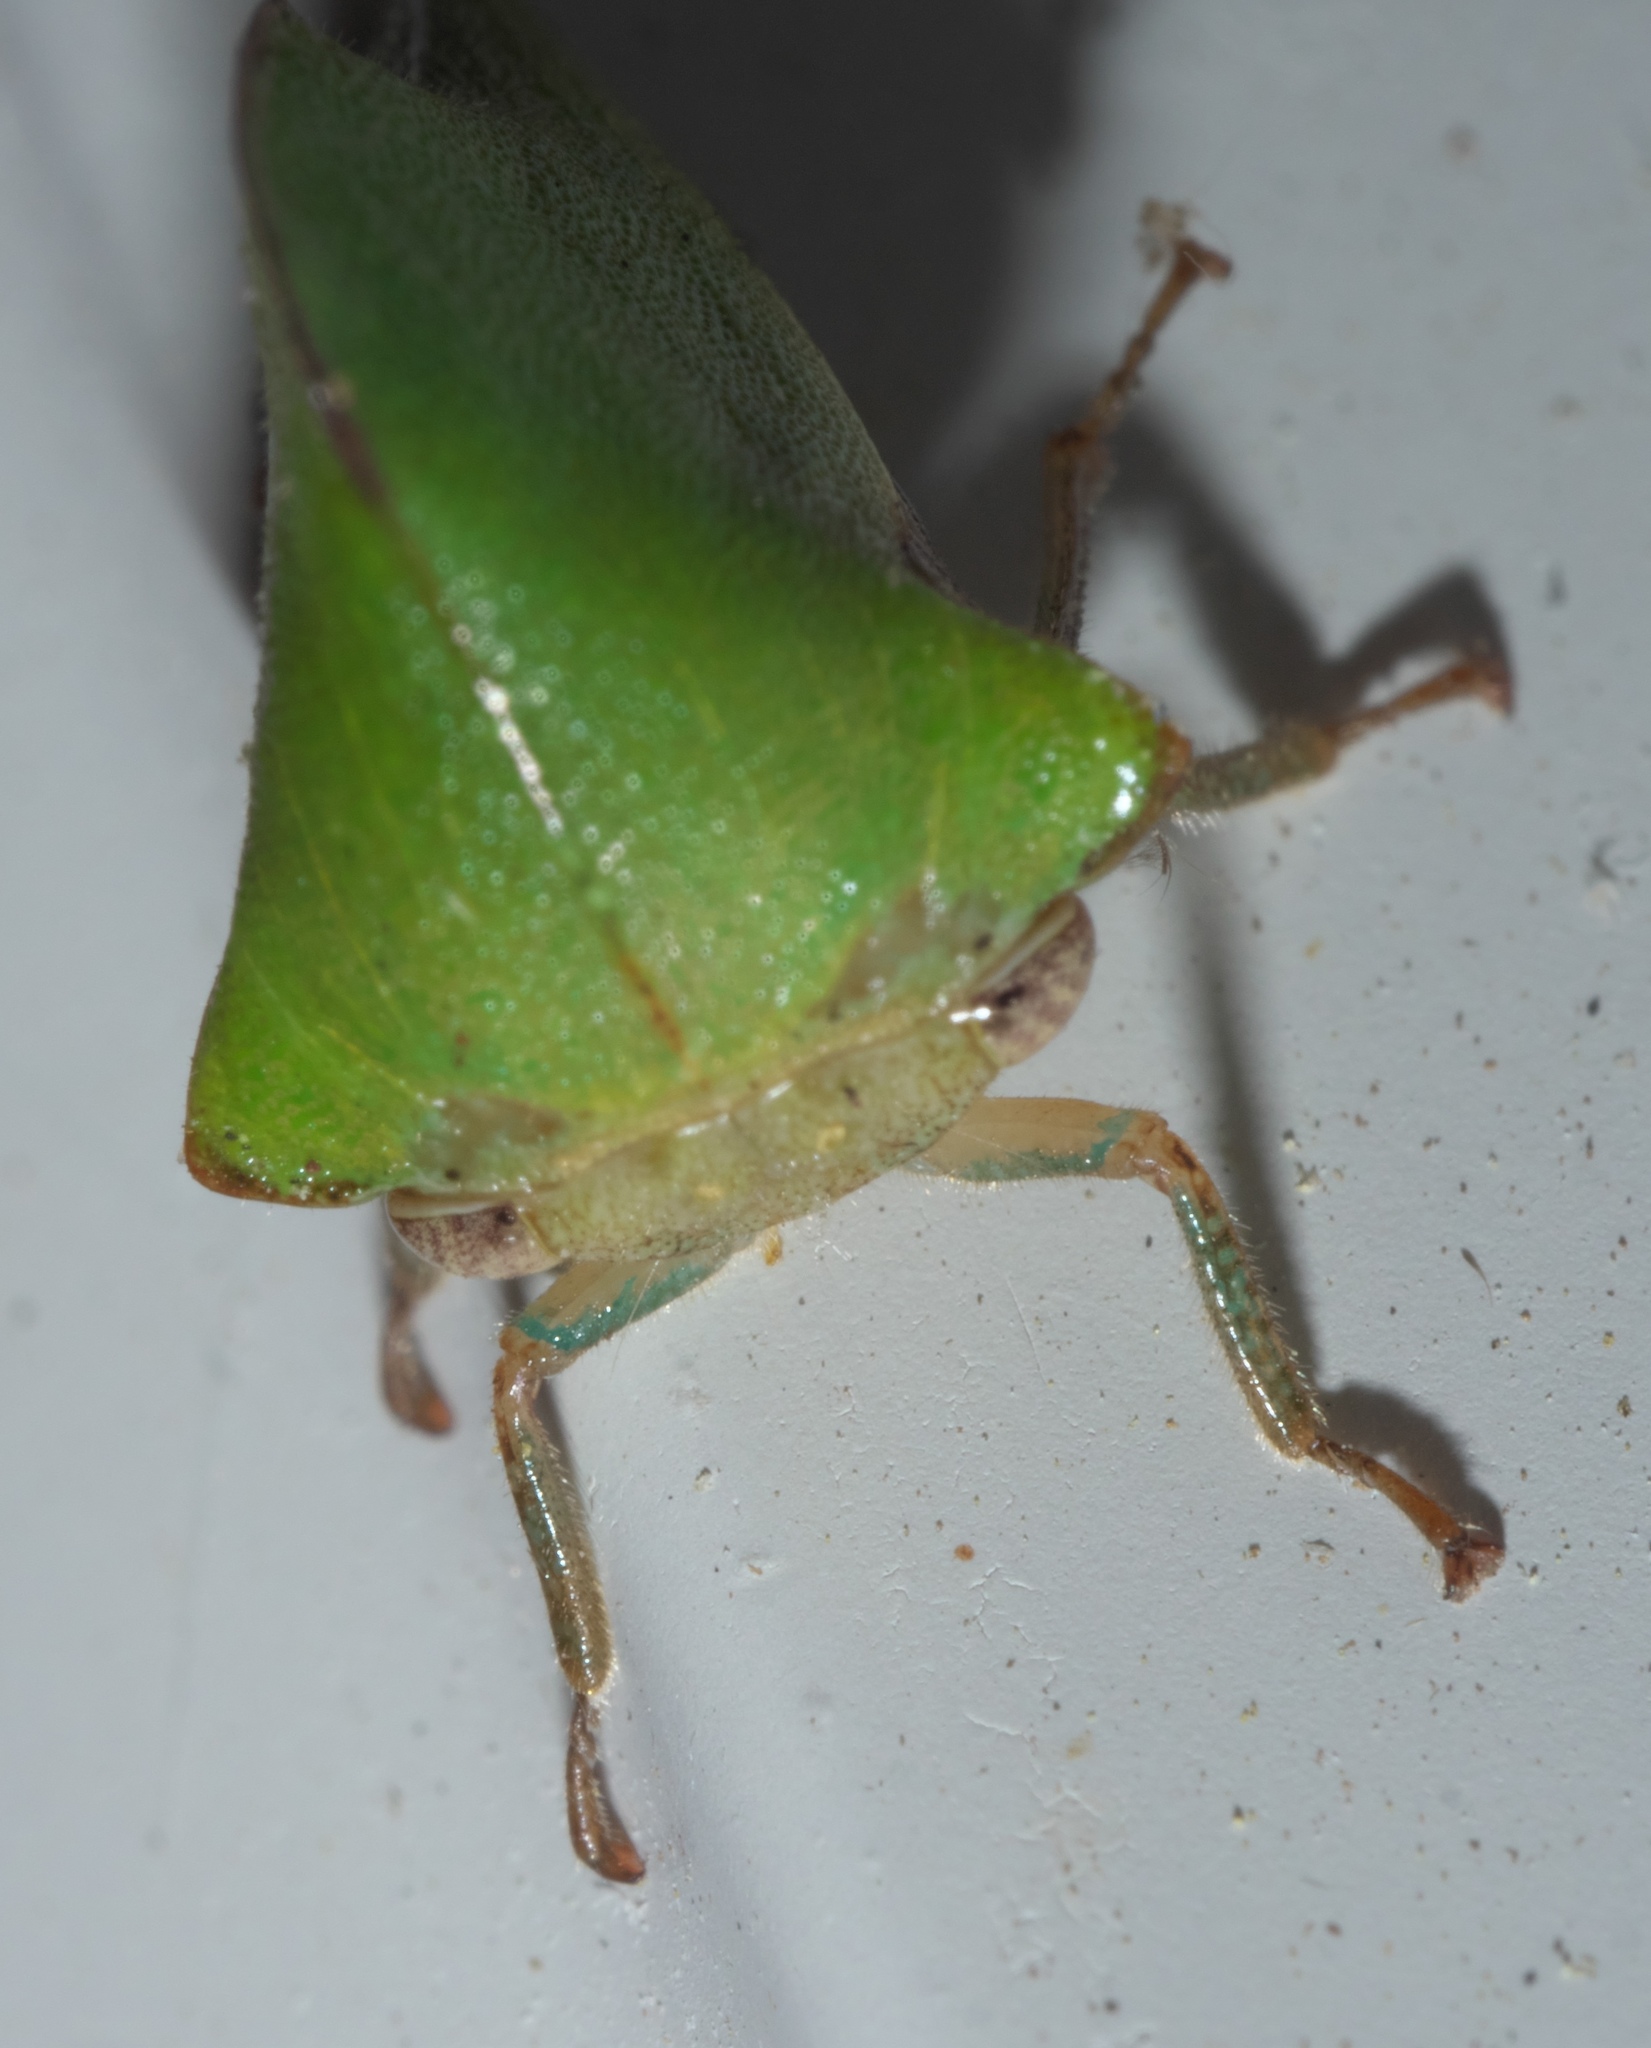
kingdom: Animalia
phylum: Arthropoda
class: Insecta
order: Hemiptera
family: Membracidae
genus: Helonica
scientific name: Helonica excelsa
